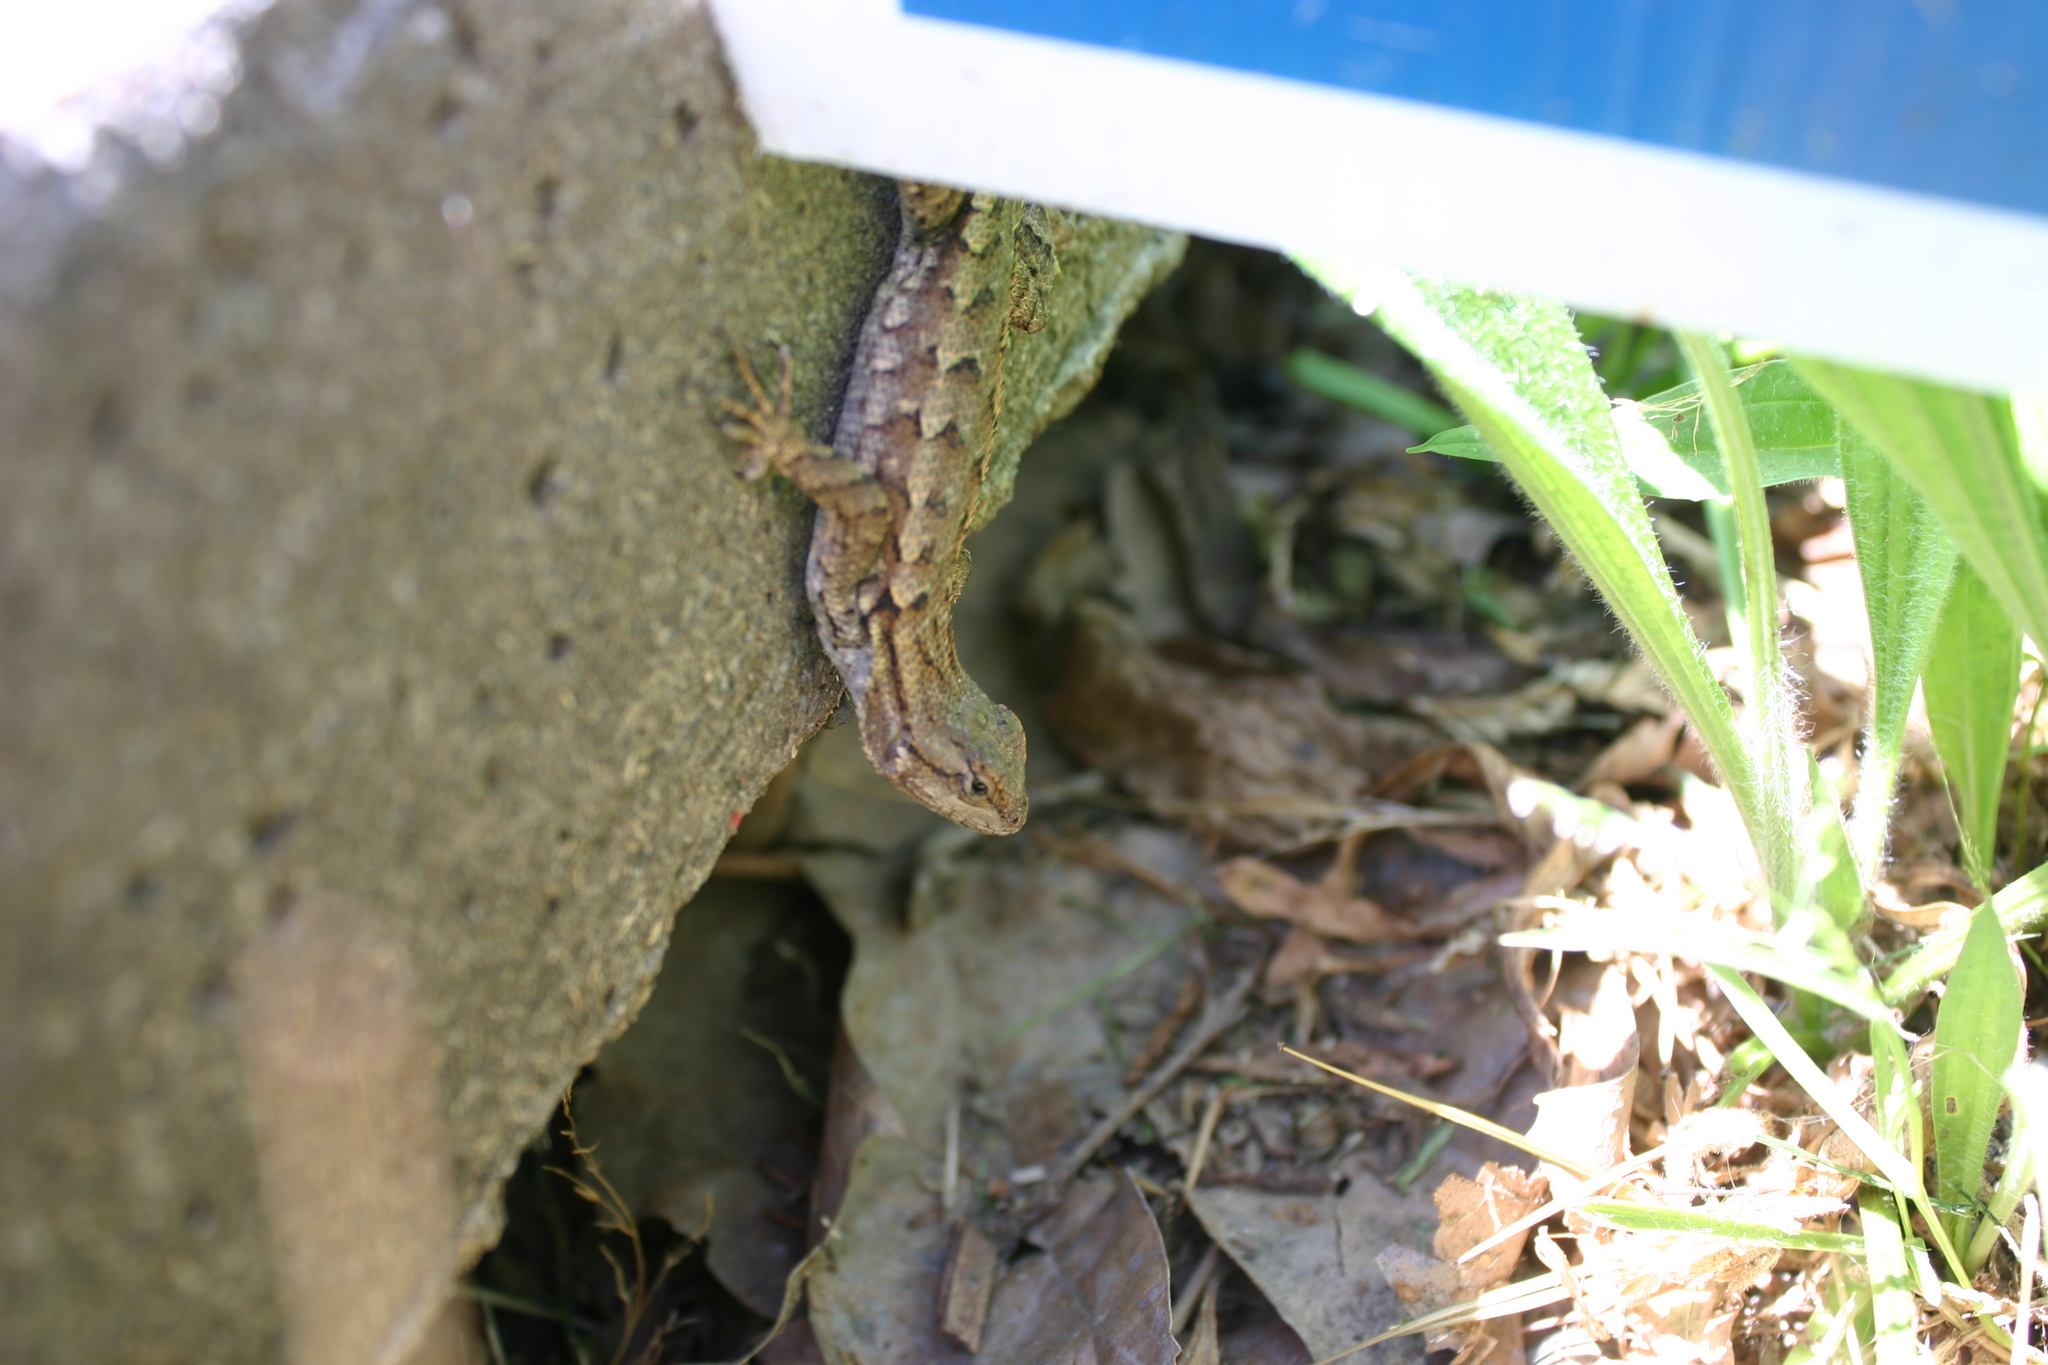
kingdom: Animalia
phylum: Chordata
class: Squamata
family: Phrynosomatidae
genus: Sceloporus
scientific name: Sceloporus occidentalis
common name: Western fence lizard
